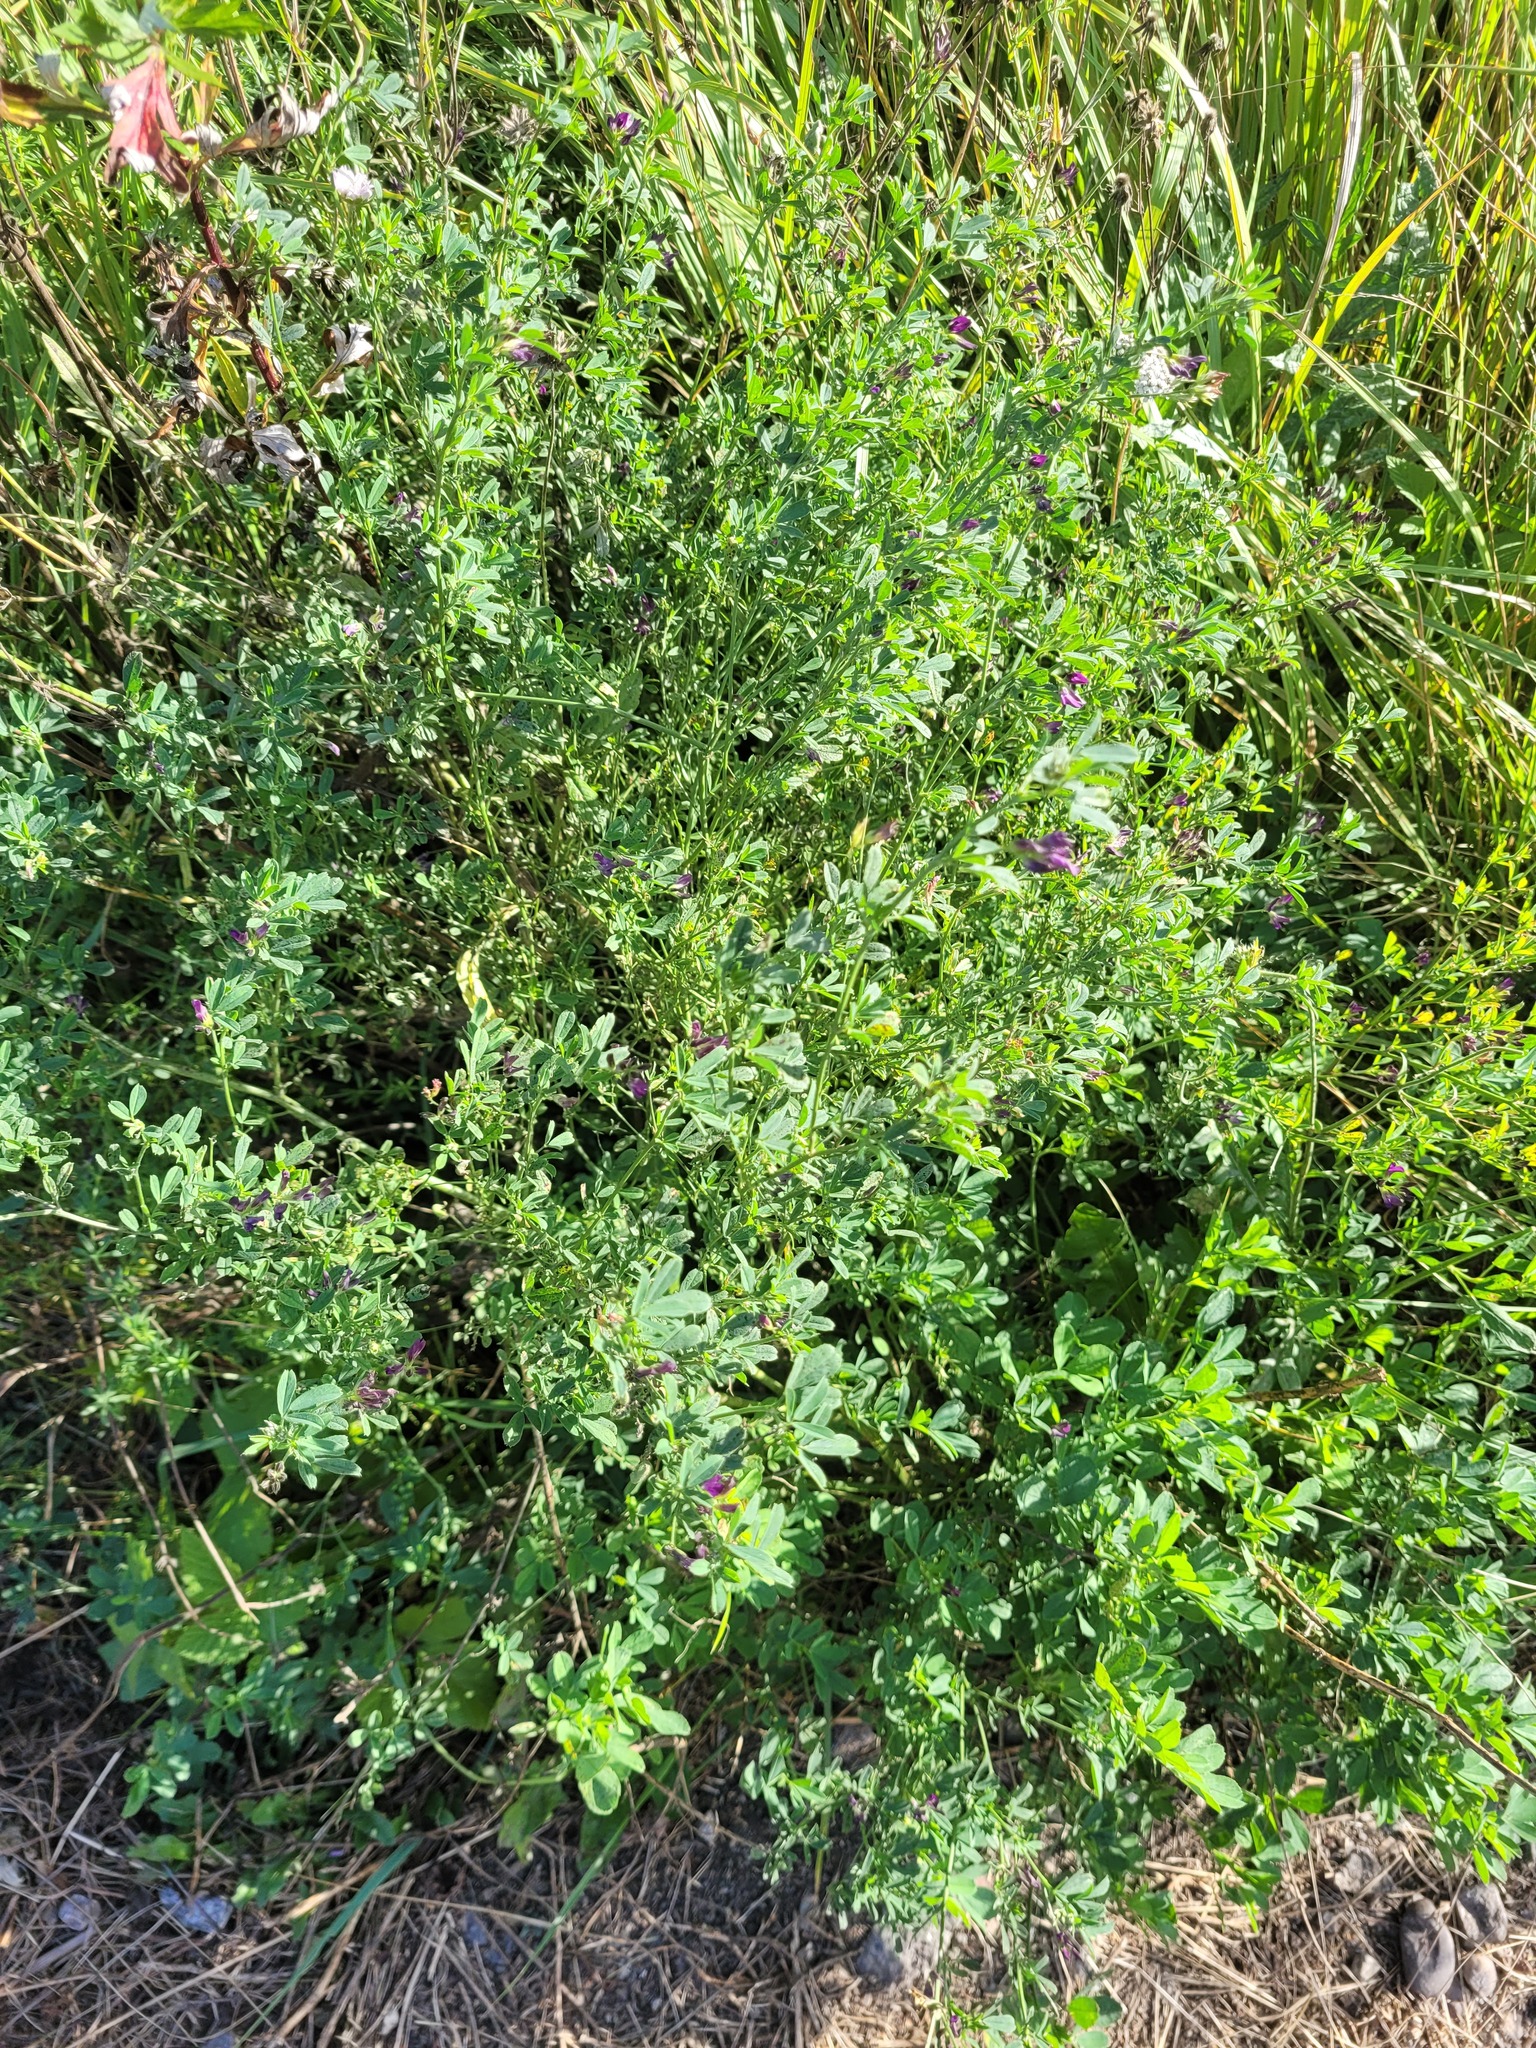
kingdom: Plantae
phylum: Tracheophyta
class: Magnoliopsida
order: Fabales
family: Fabaceae
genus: Medicago
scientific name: Medicago varia
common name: Sand lucerne
